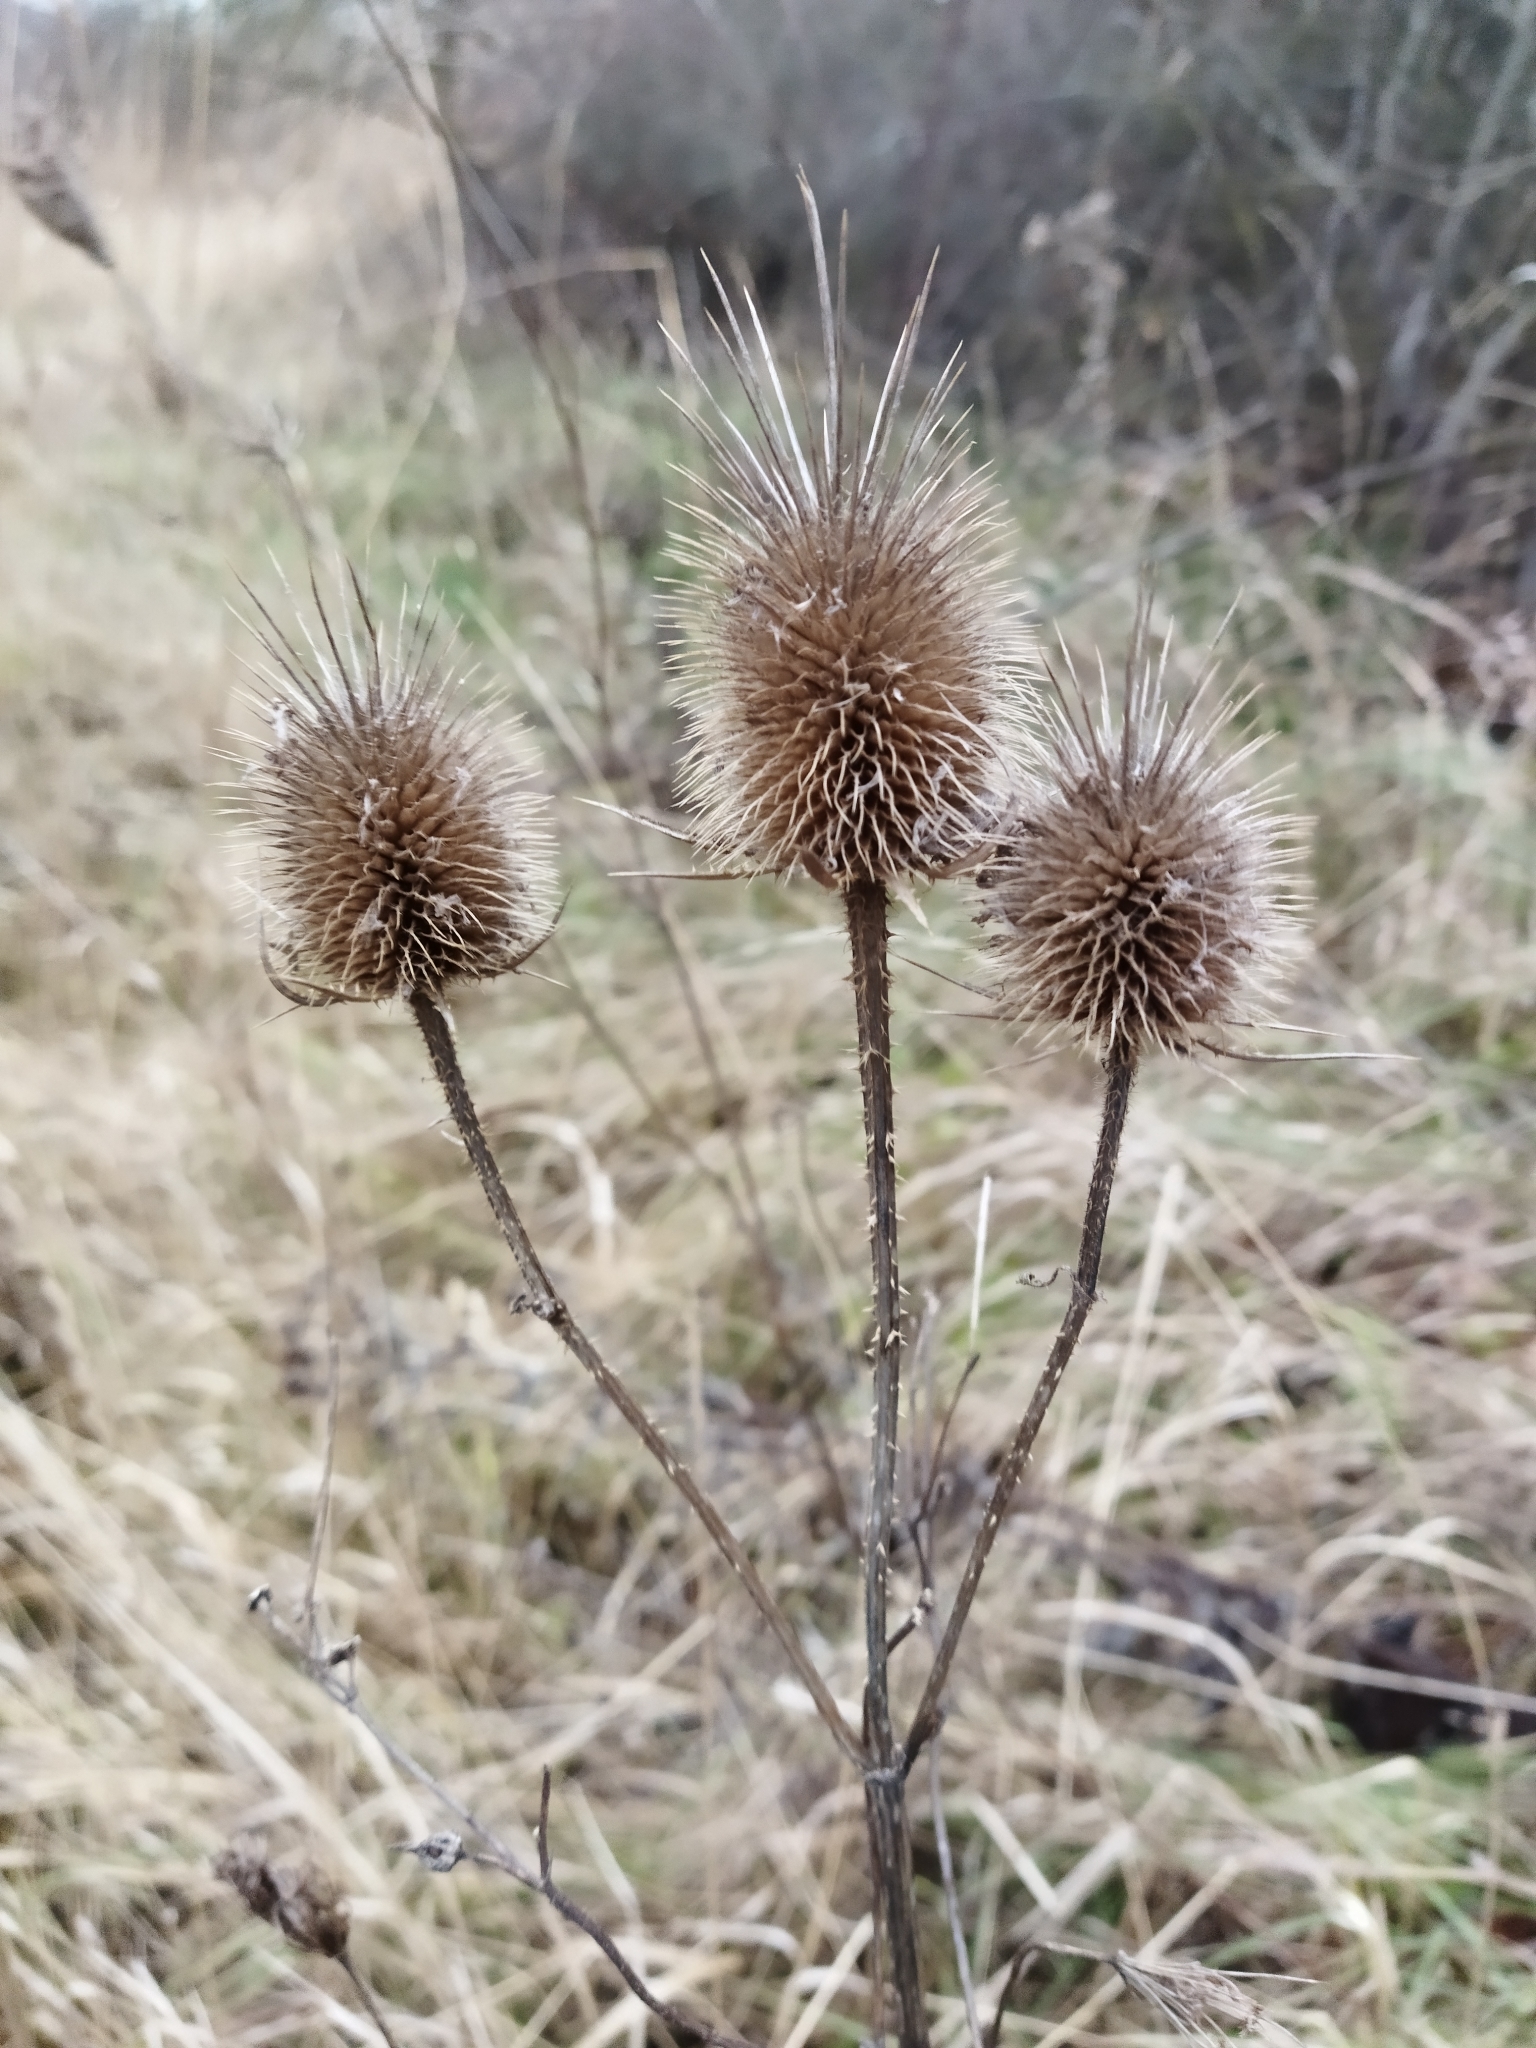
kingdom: Plantae
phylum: Tracheophyta
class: Magnoliopsida
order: Dipsacales
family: Caprifoliaceae
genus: Dipsacus
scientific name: Dipsacus laciniatus
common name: Cut-leaved teasel
